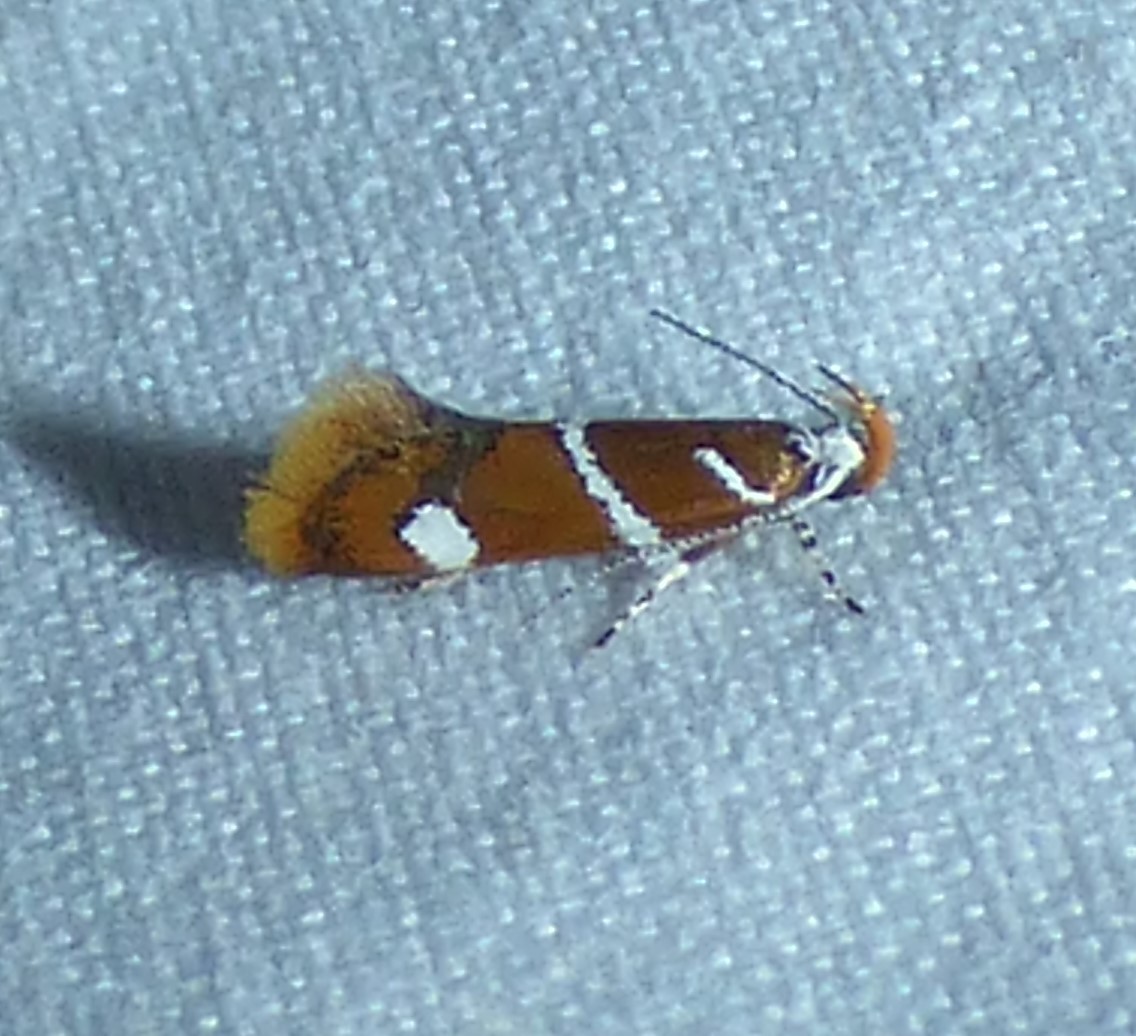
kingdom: Animalia
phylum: Arthropoda
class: Insecta
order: Lepidoptera
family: Oecophoridae
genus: Promalactis
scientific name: Promalactis suzukiella
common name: Moth
